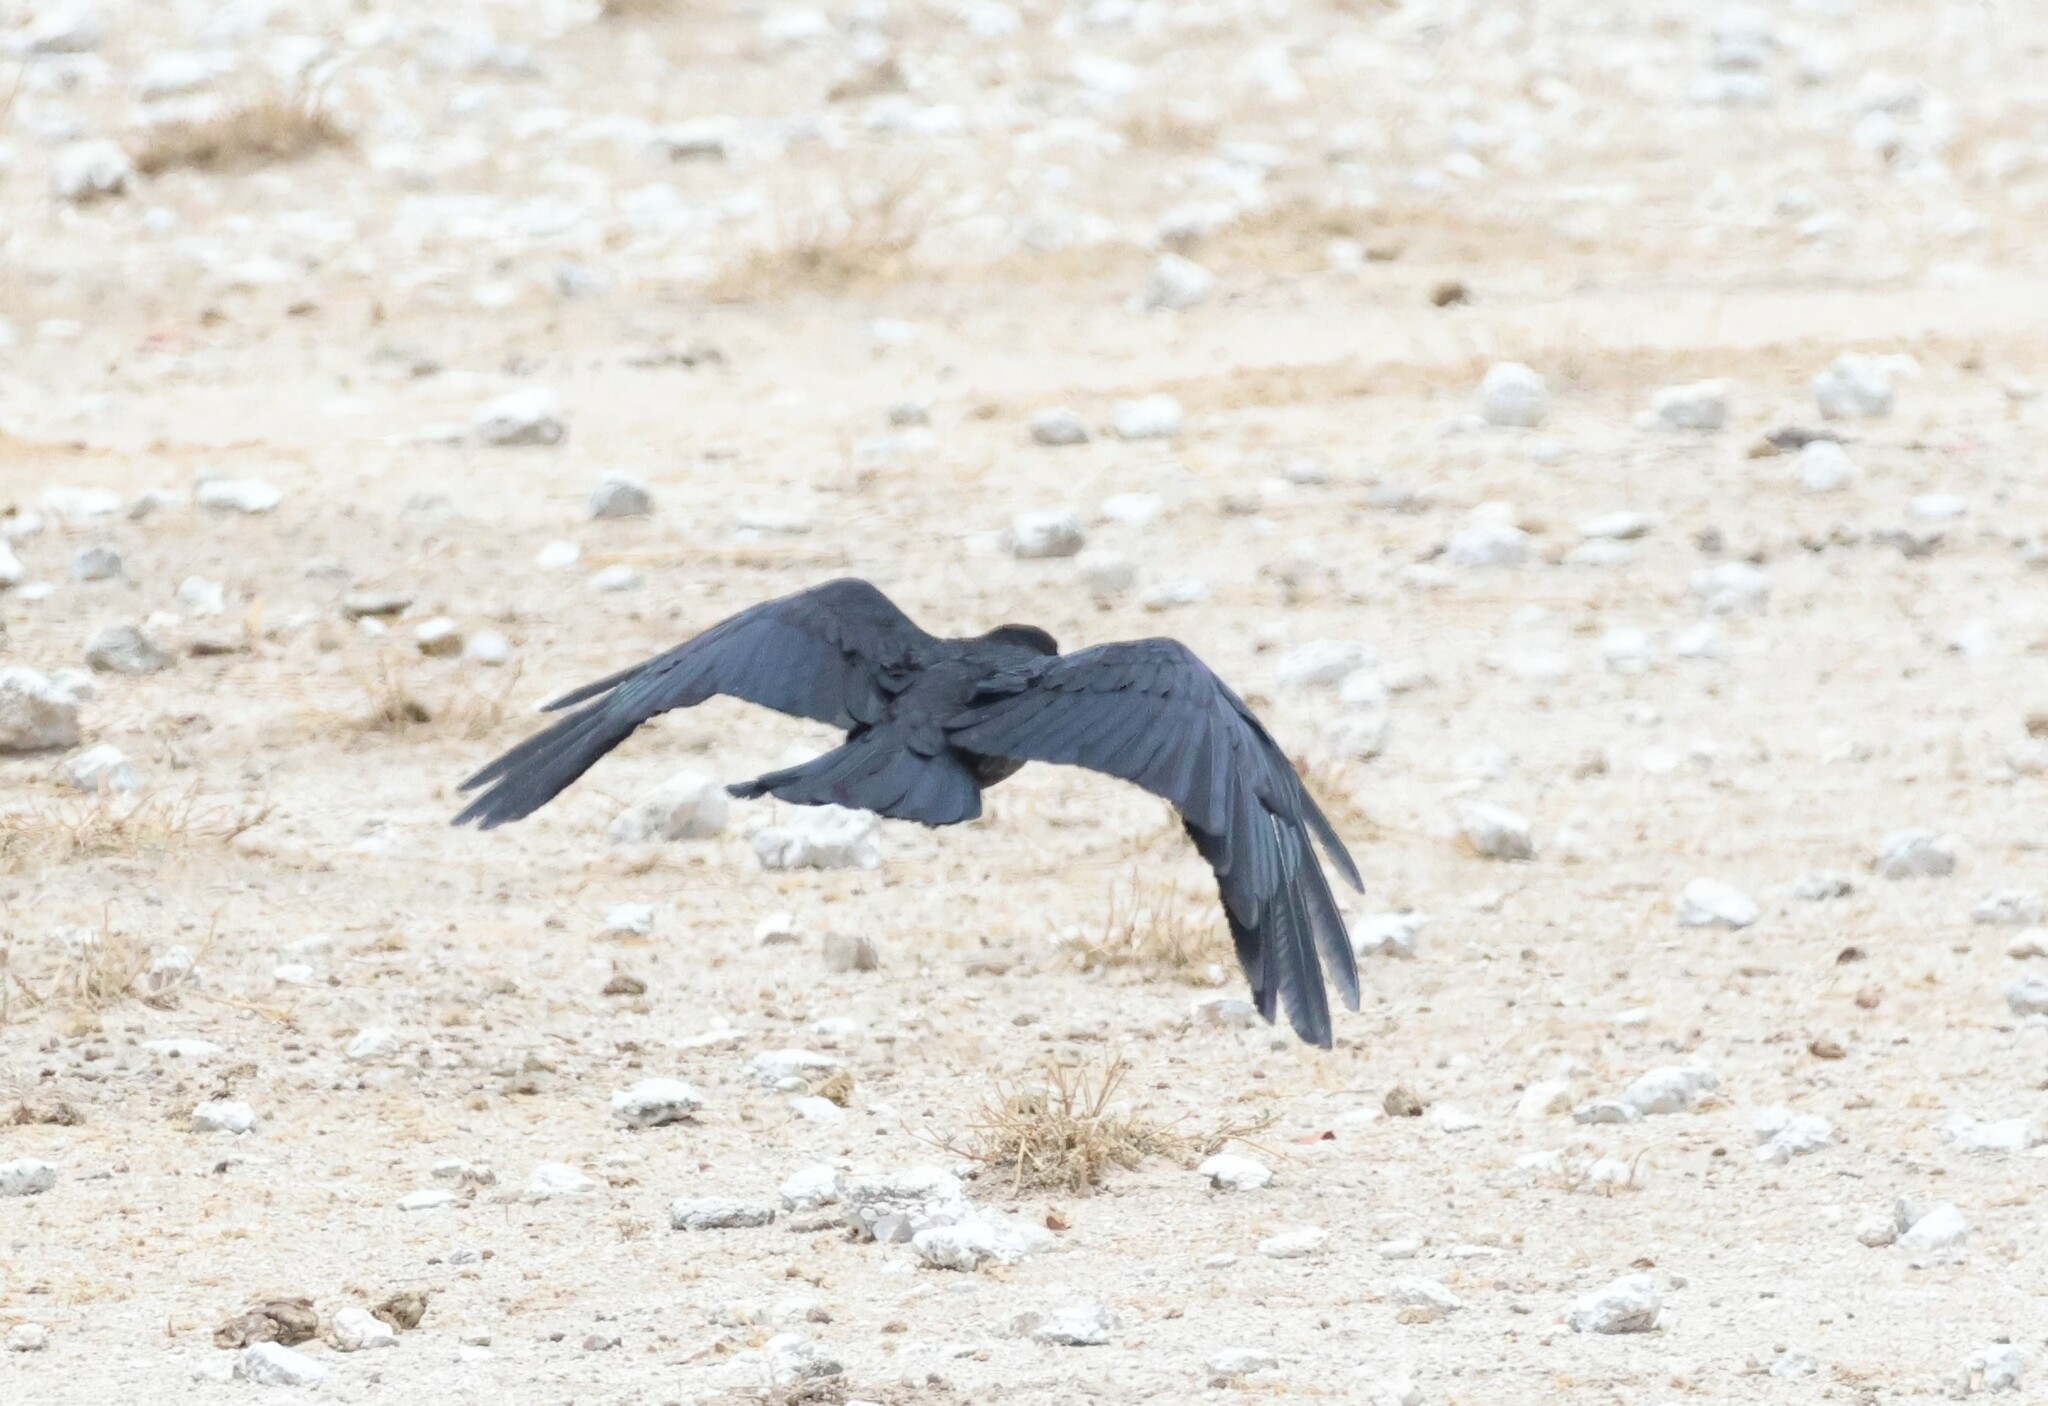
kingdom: Animalia
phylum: Chordata
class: Aves
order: Passeriformes
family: Corvidae
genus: Corvus
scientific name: Corvus capensis
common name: Cape crow
